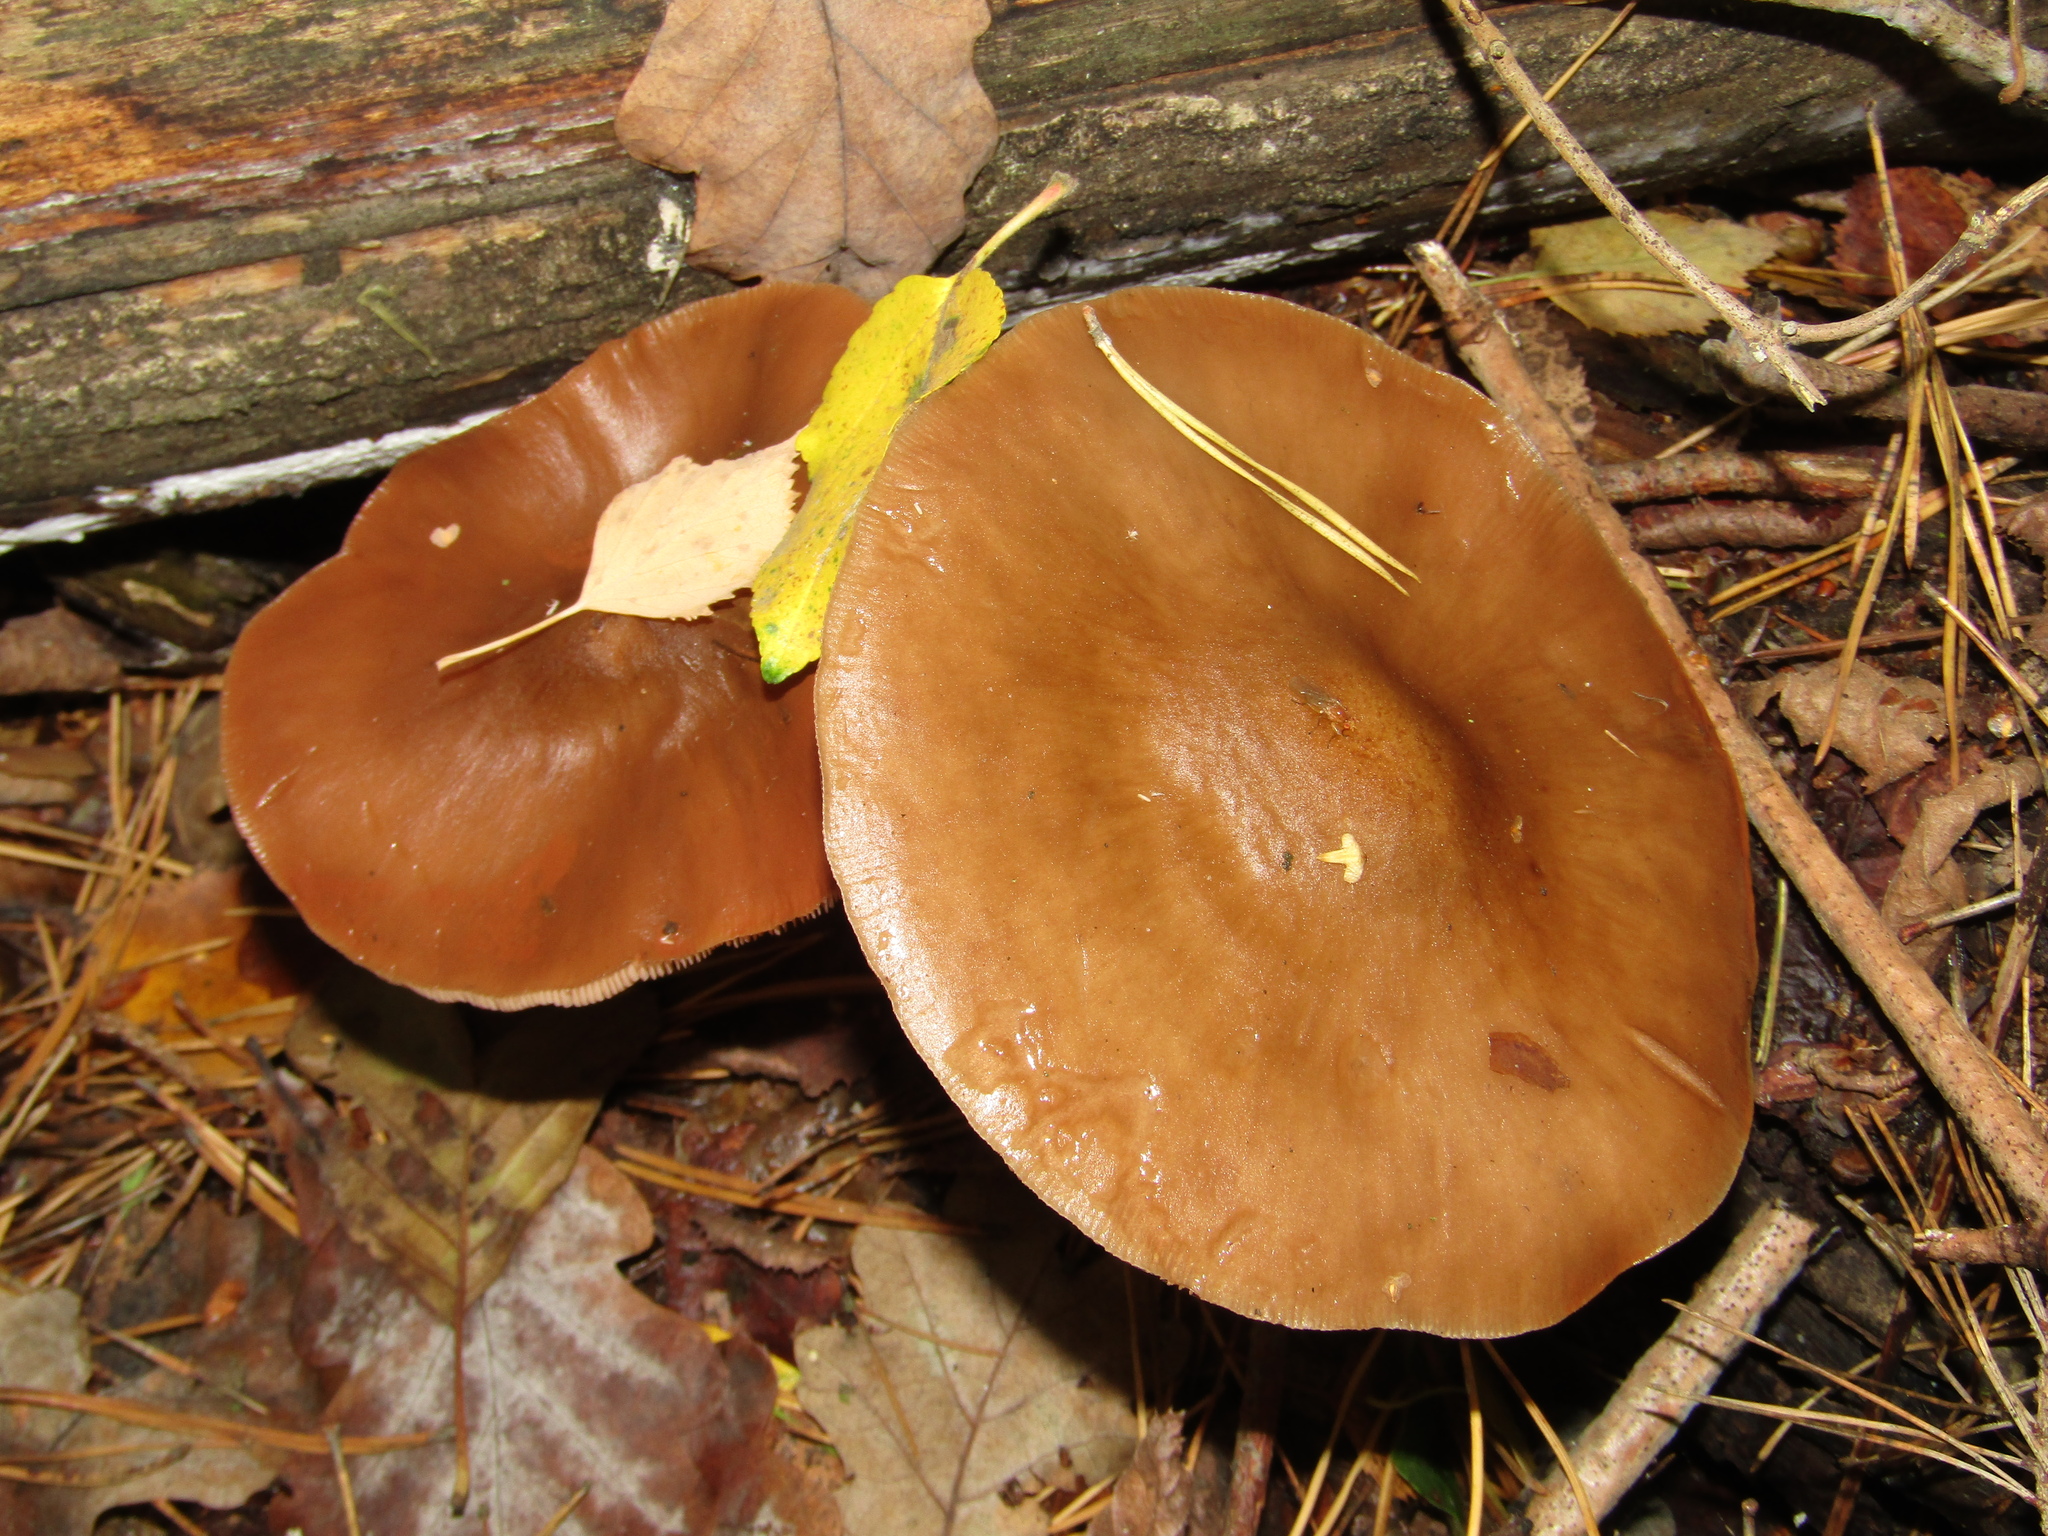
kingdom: Fungi
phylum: Basidiomycota
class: Agaricomycetes
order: Agaricales
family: Pluteaceae
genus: Pluteus
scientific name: Pluteus cervinus
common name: Deer shield
